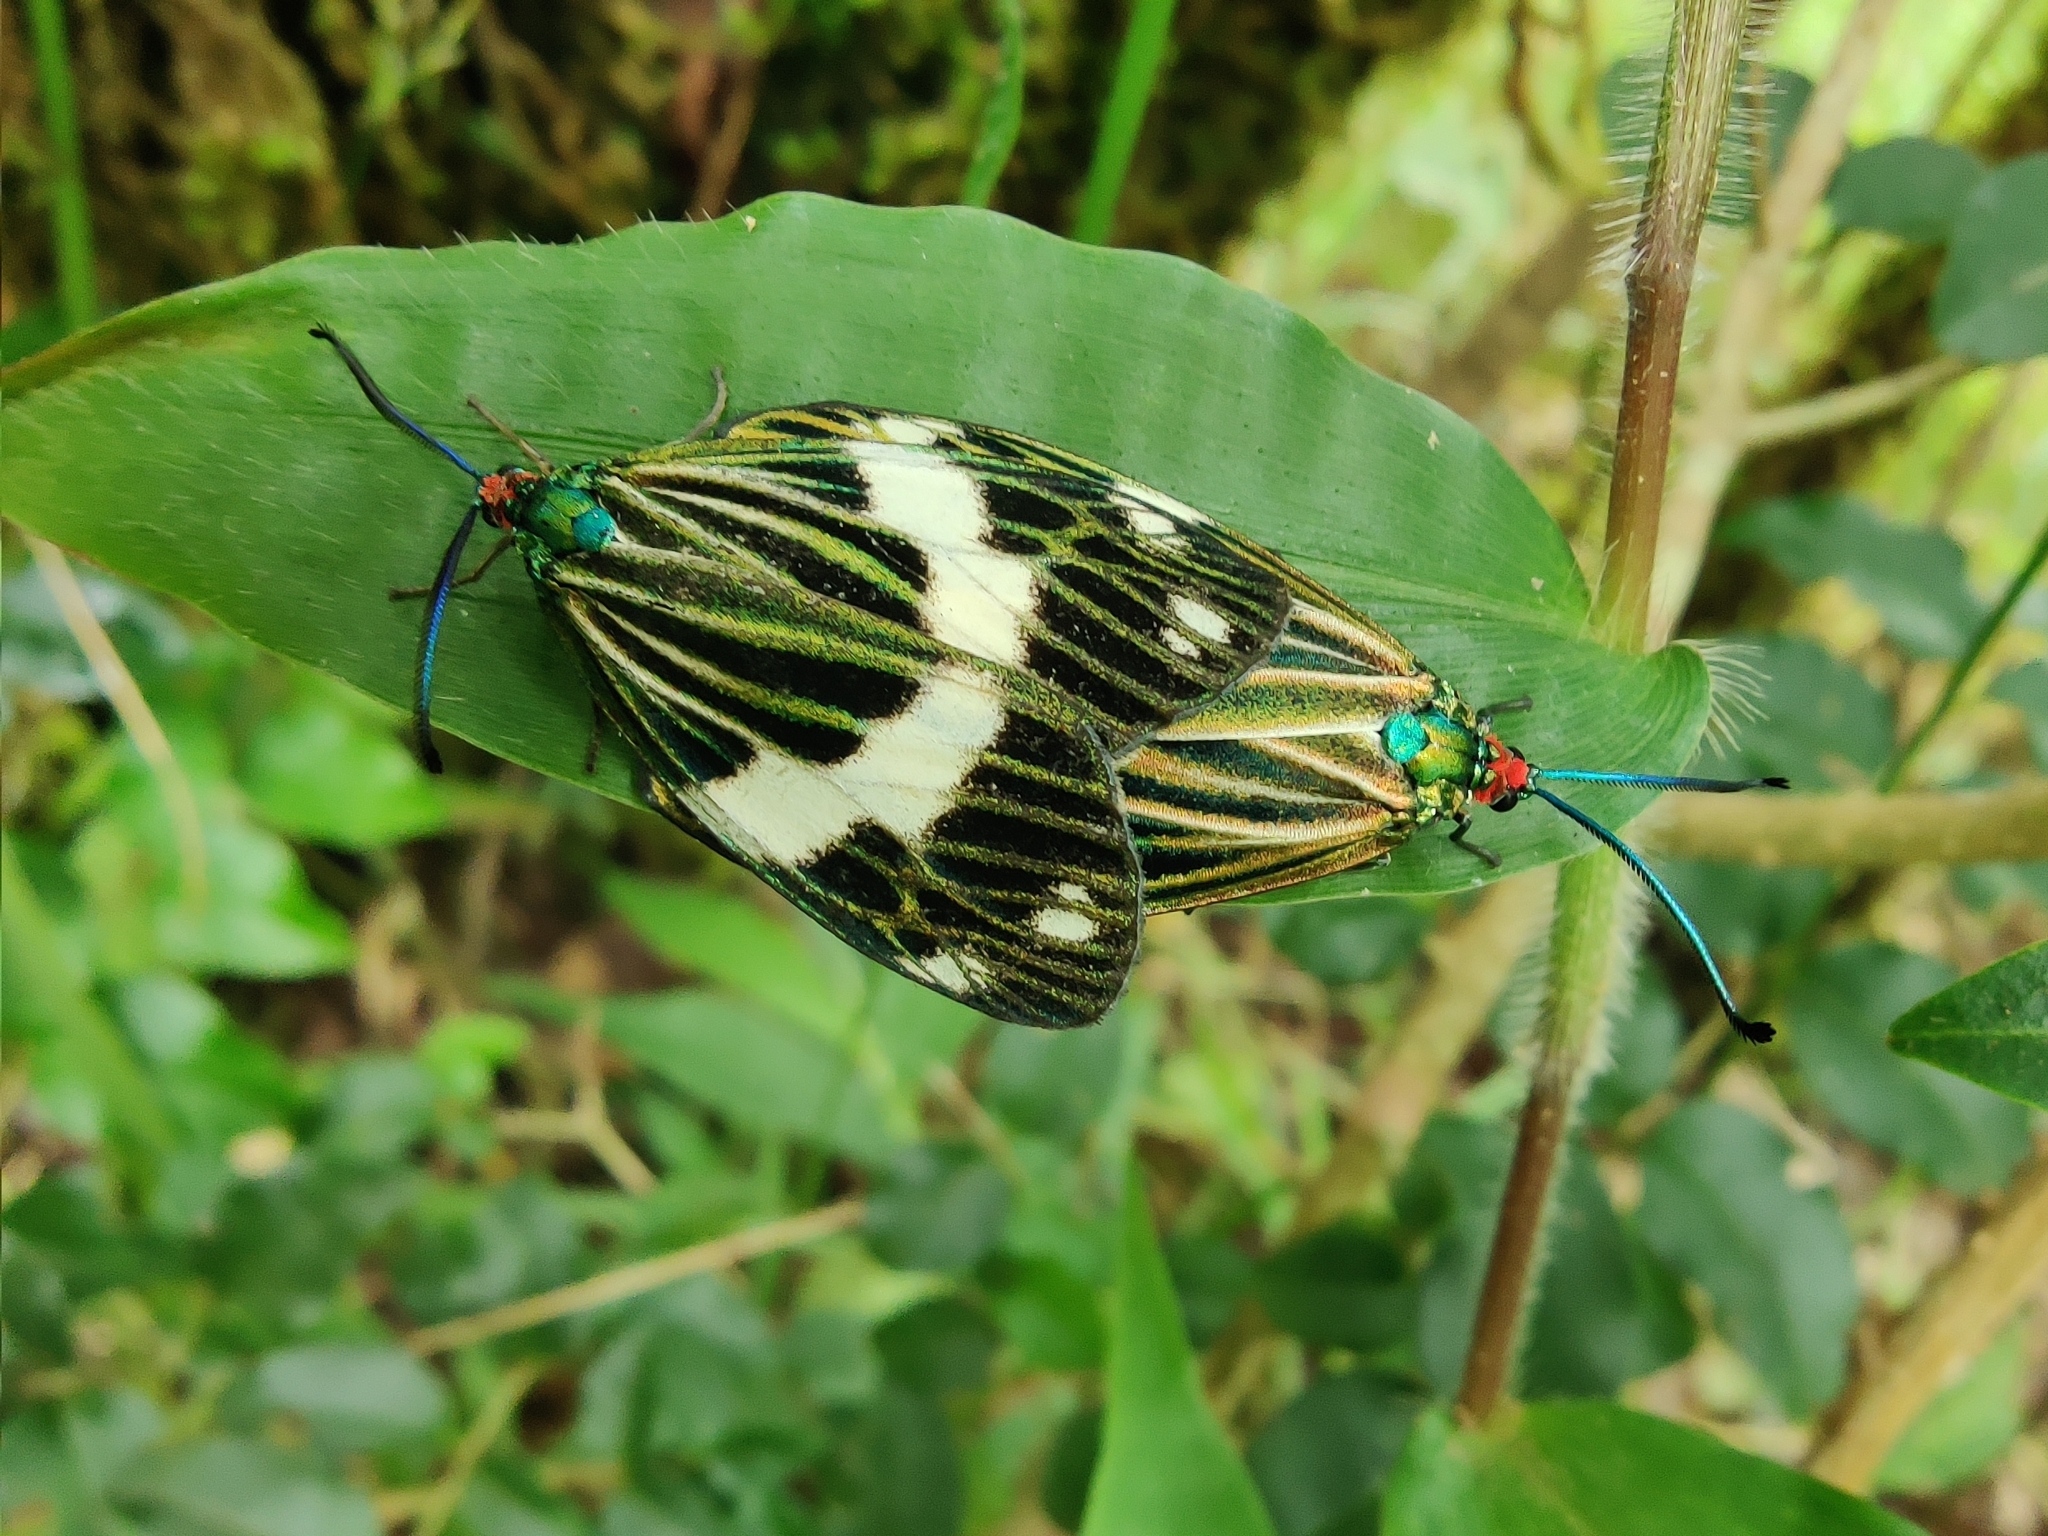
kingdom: Animalia
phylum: Arthropoda
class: Insecta
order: Lepidoptera
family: Zygaenidae
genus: Chalcosia
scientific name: Chalcosia affinis
